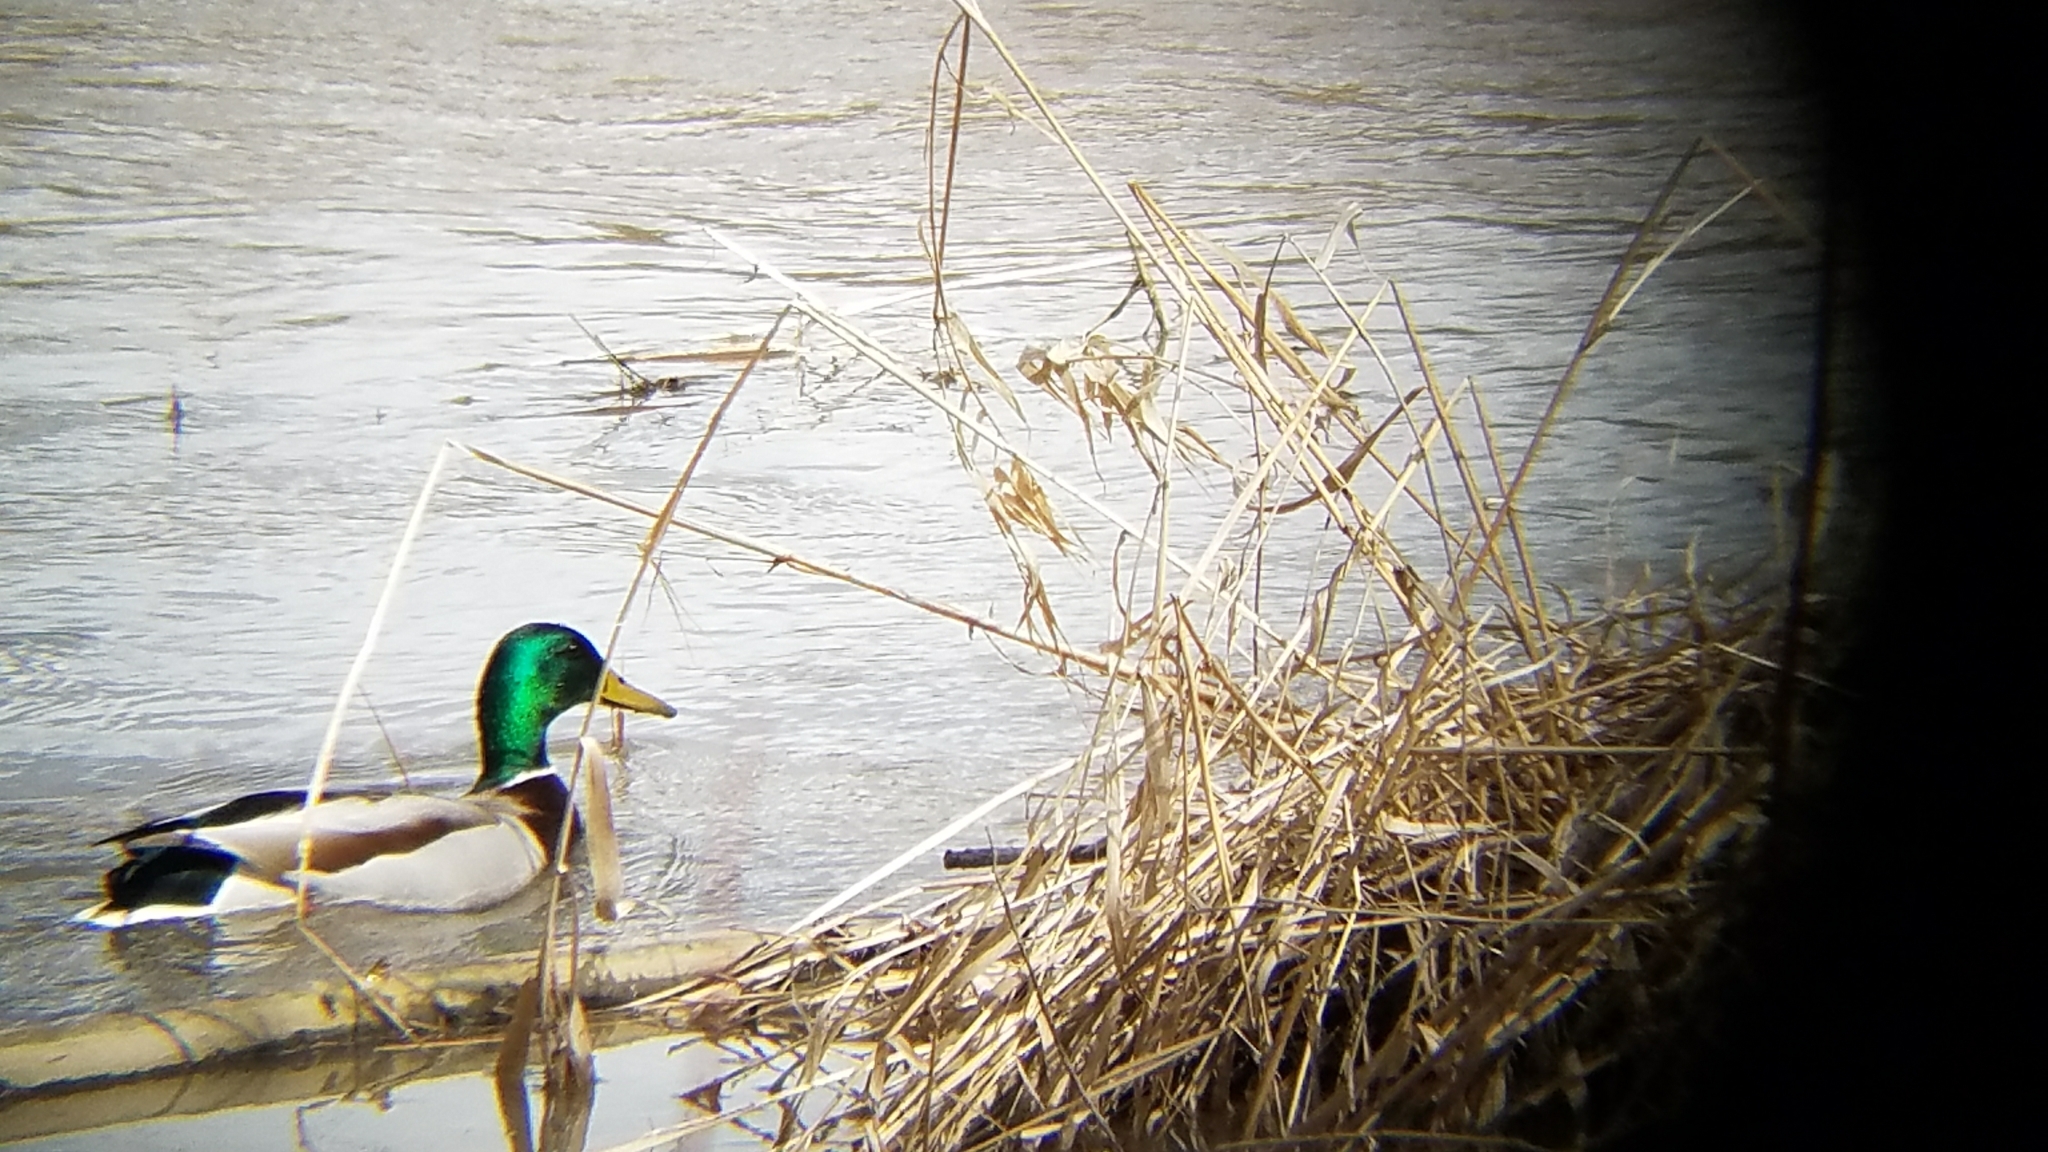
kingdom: Animalia
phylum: Chordata
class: Aves
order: Anseriformes
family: Anatidae
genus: Anas
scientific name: Anas platyrhynchos
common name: Mallard
